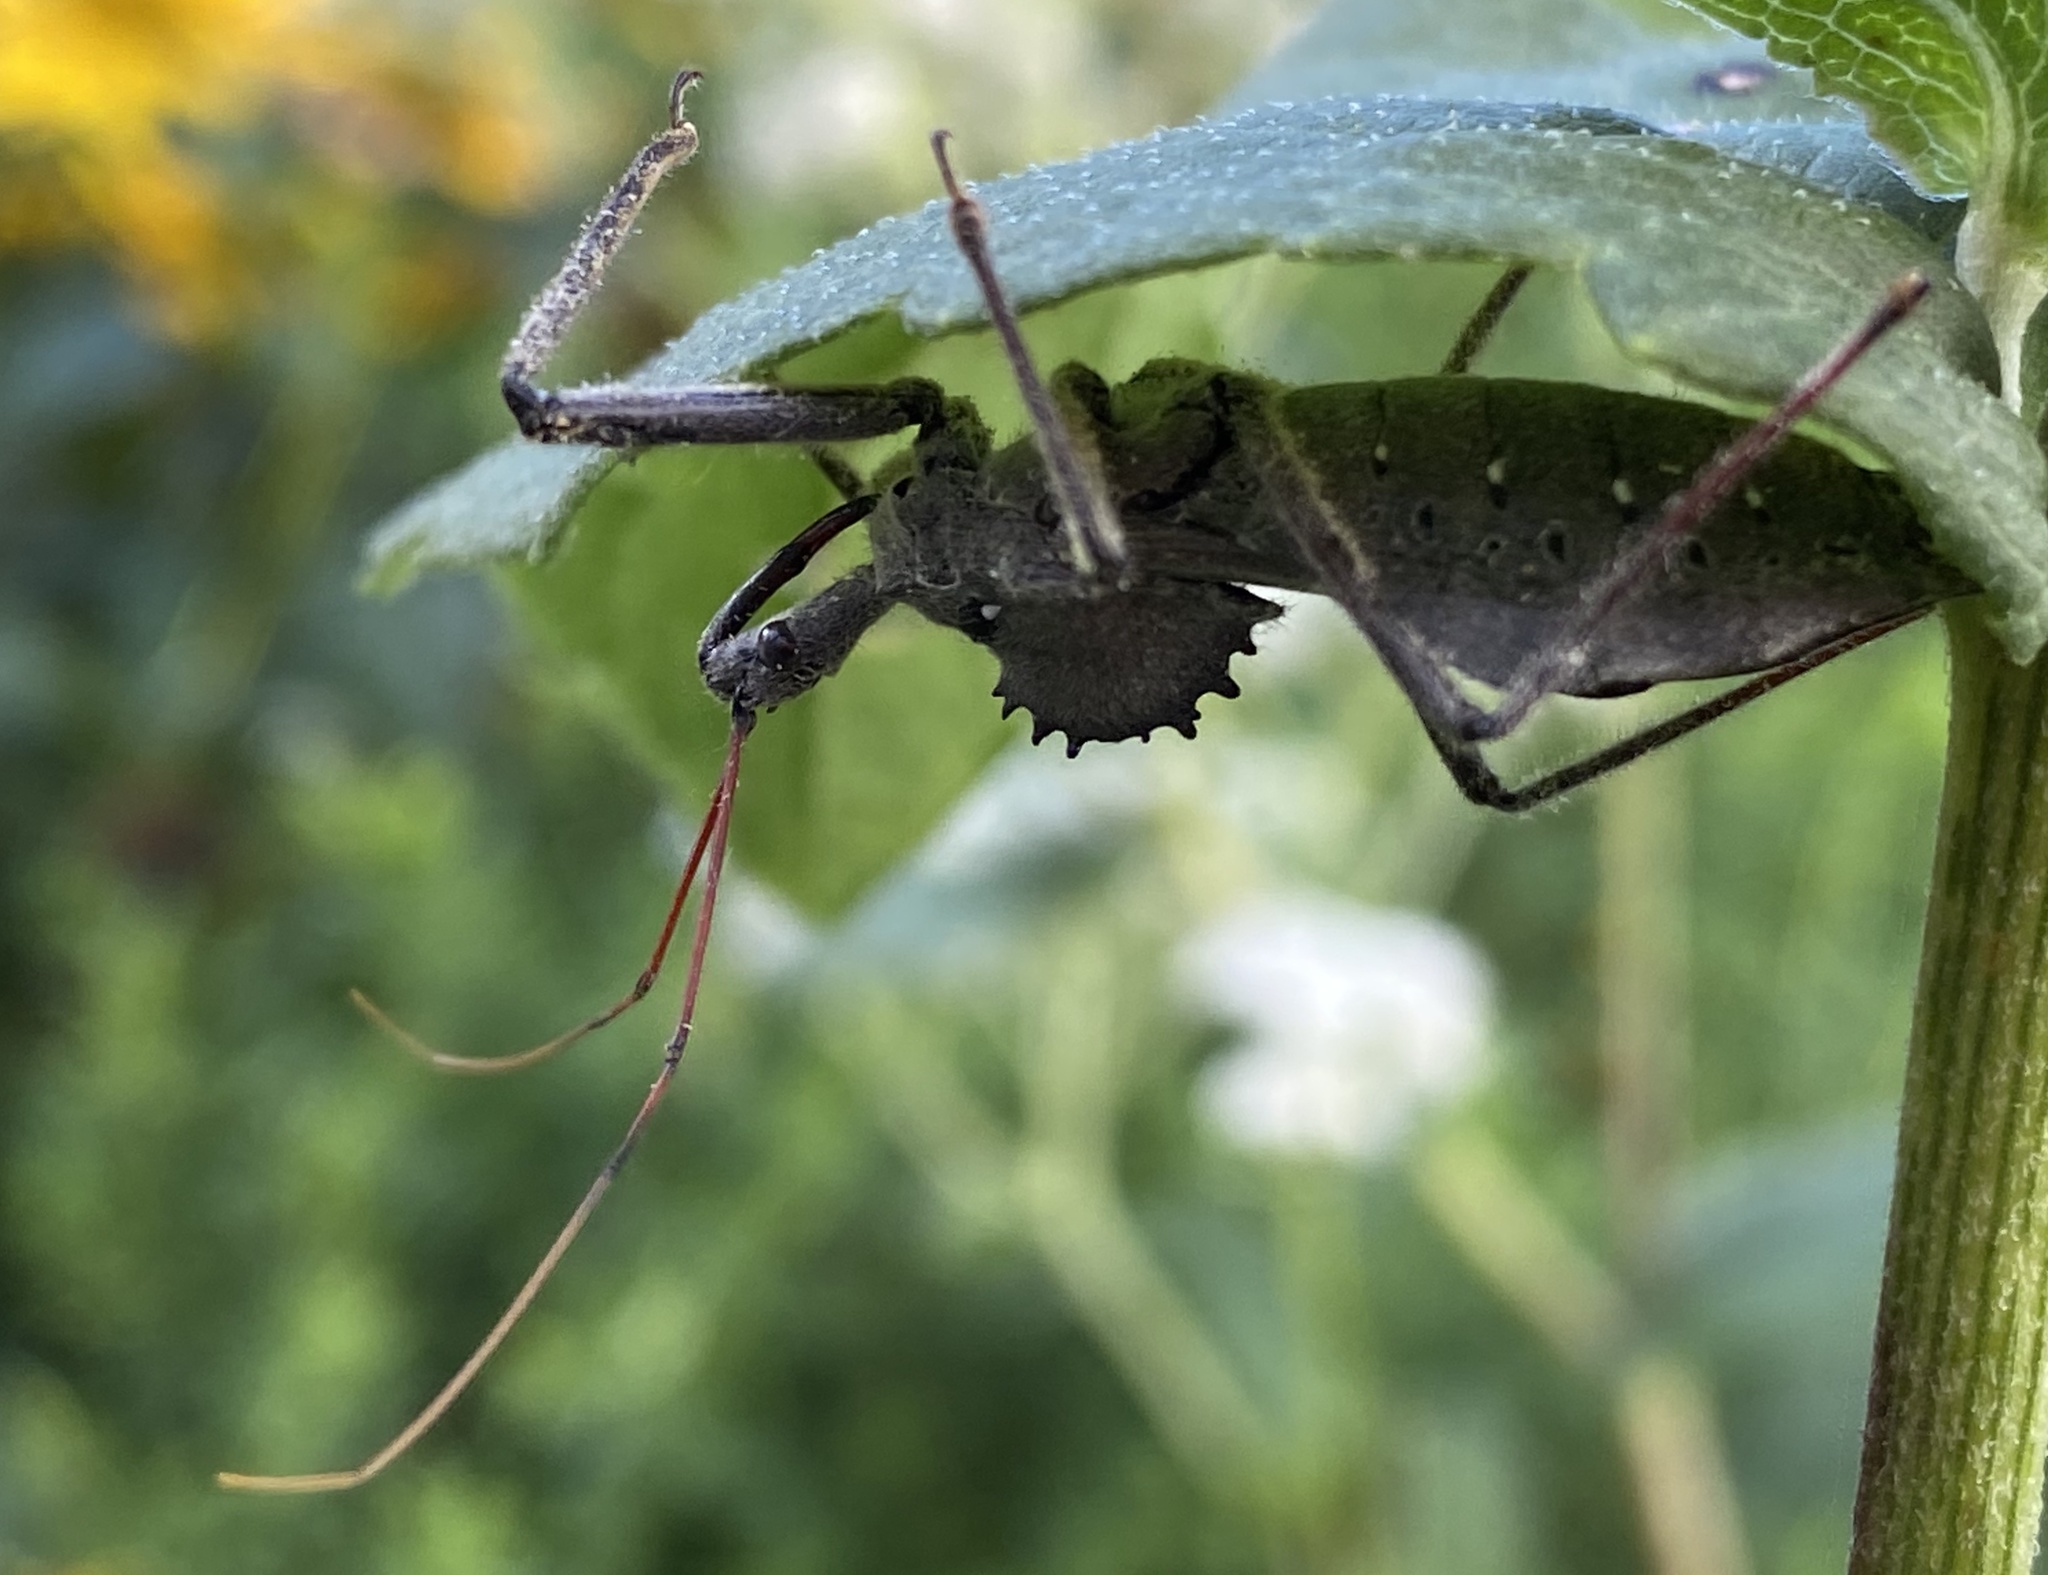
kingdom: Animalia
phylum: Arthropoda
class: Insecta
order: Hemiptera
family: Reduviidae
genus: Arilus
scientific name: Arilus cristatus
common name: North american wheel bug
